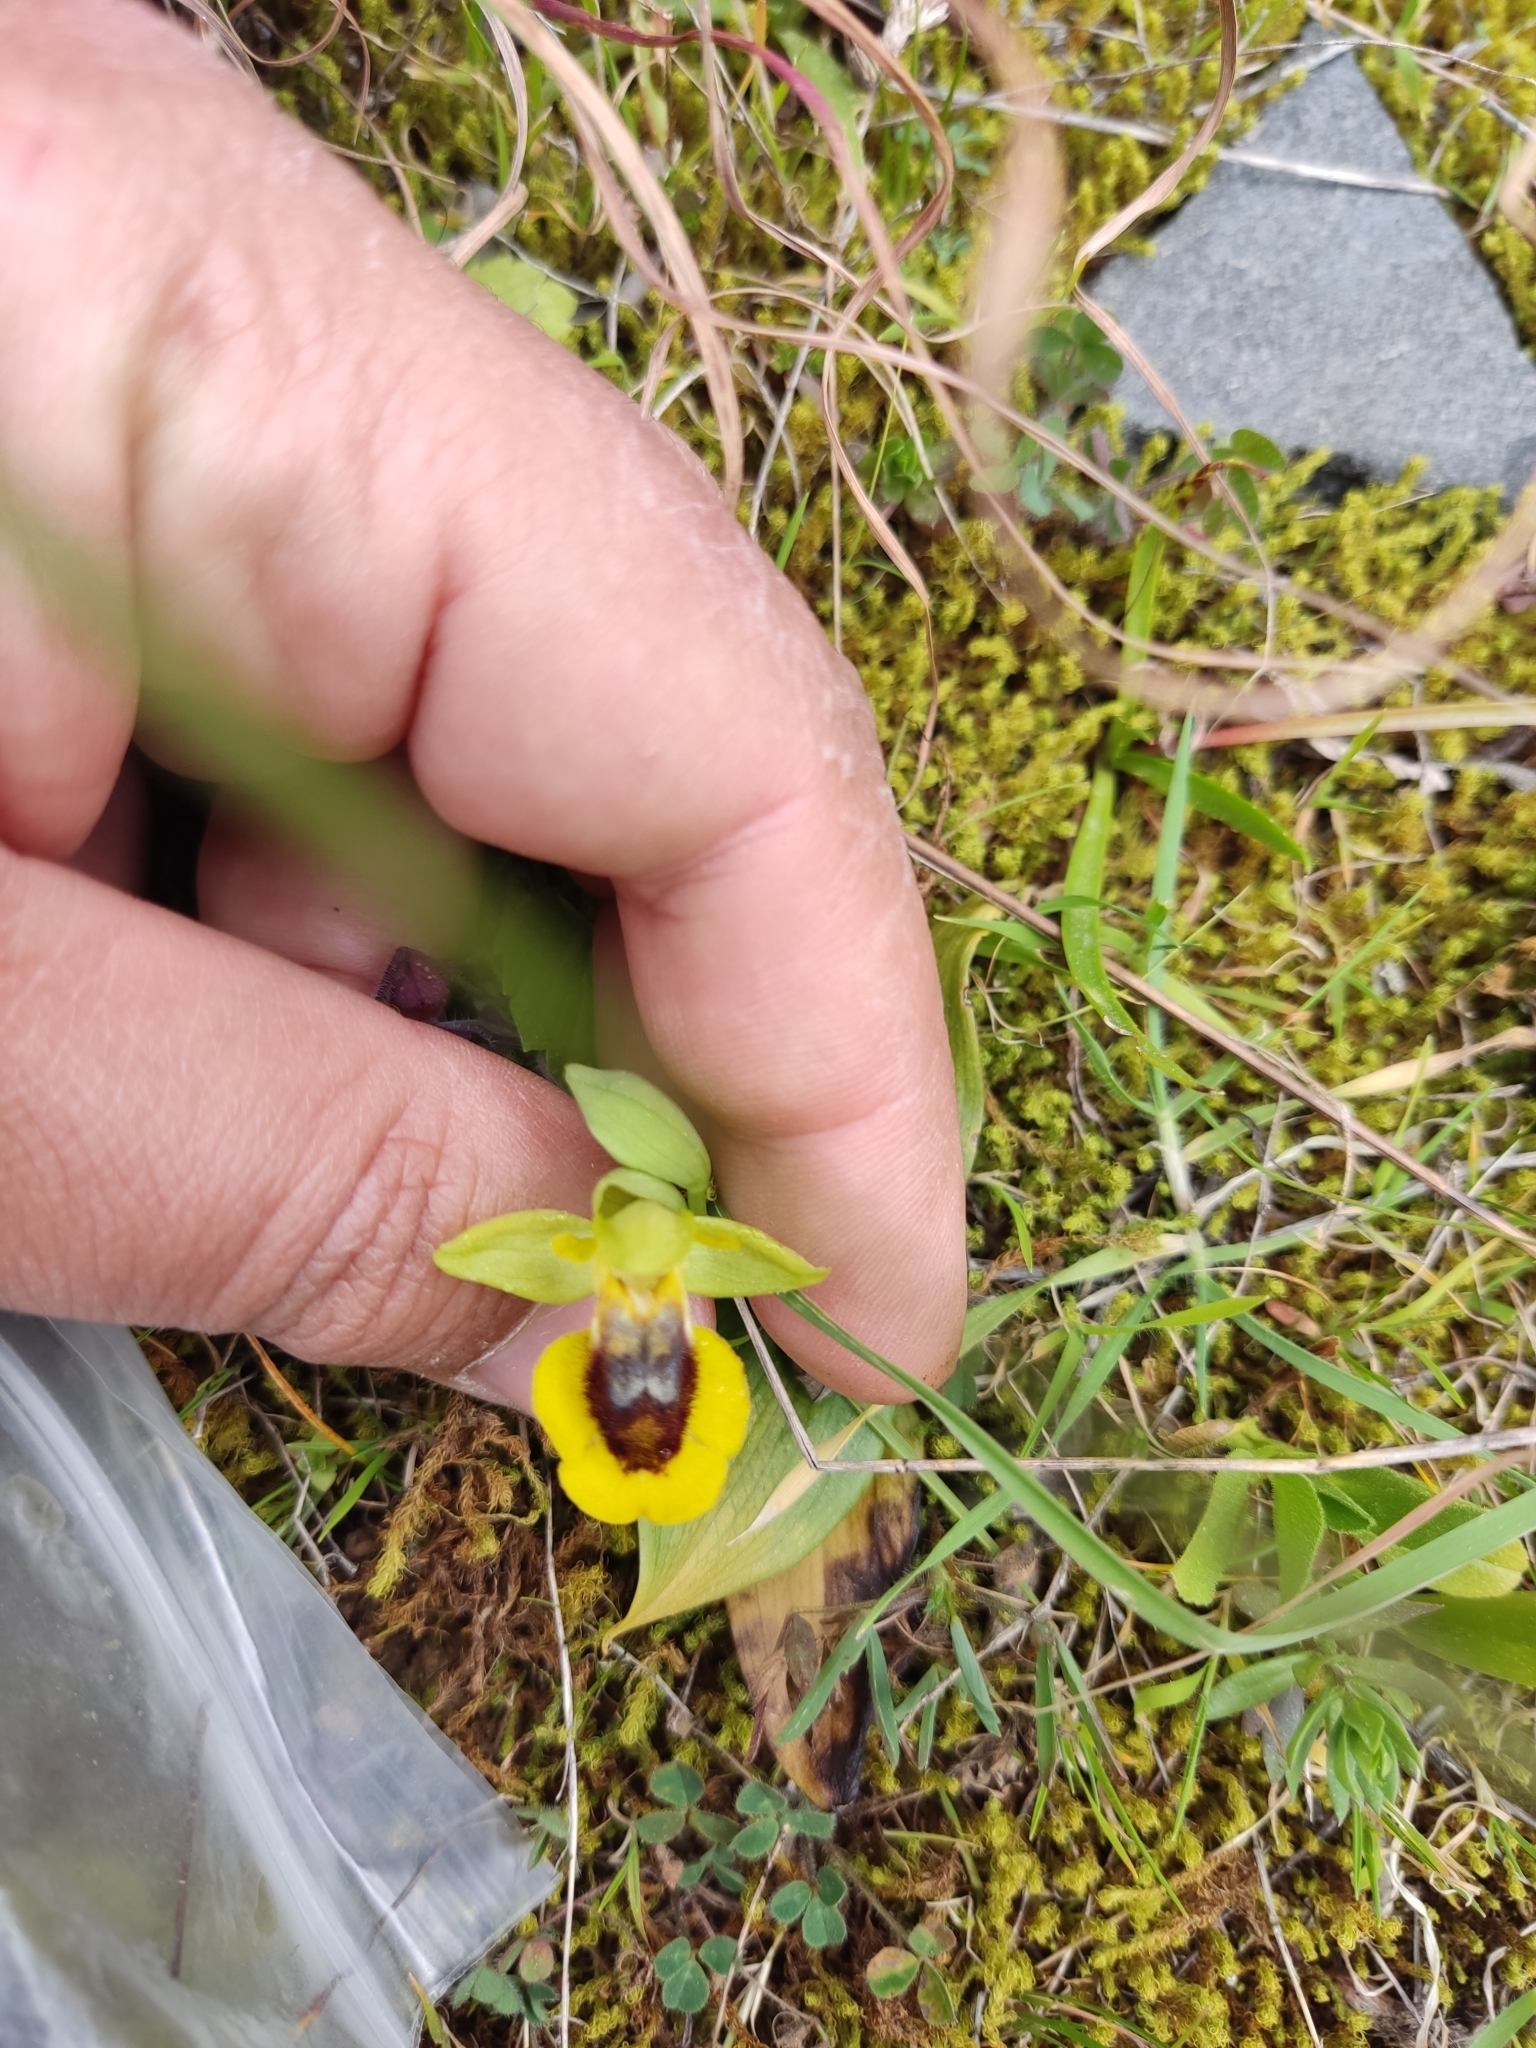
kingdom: Plantae
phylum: Tracheophyta
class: Liliopsida
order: Asparagales
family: Orchidaceae
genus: Ophrys
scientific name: Ophrys lutea
